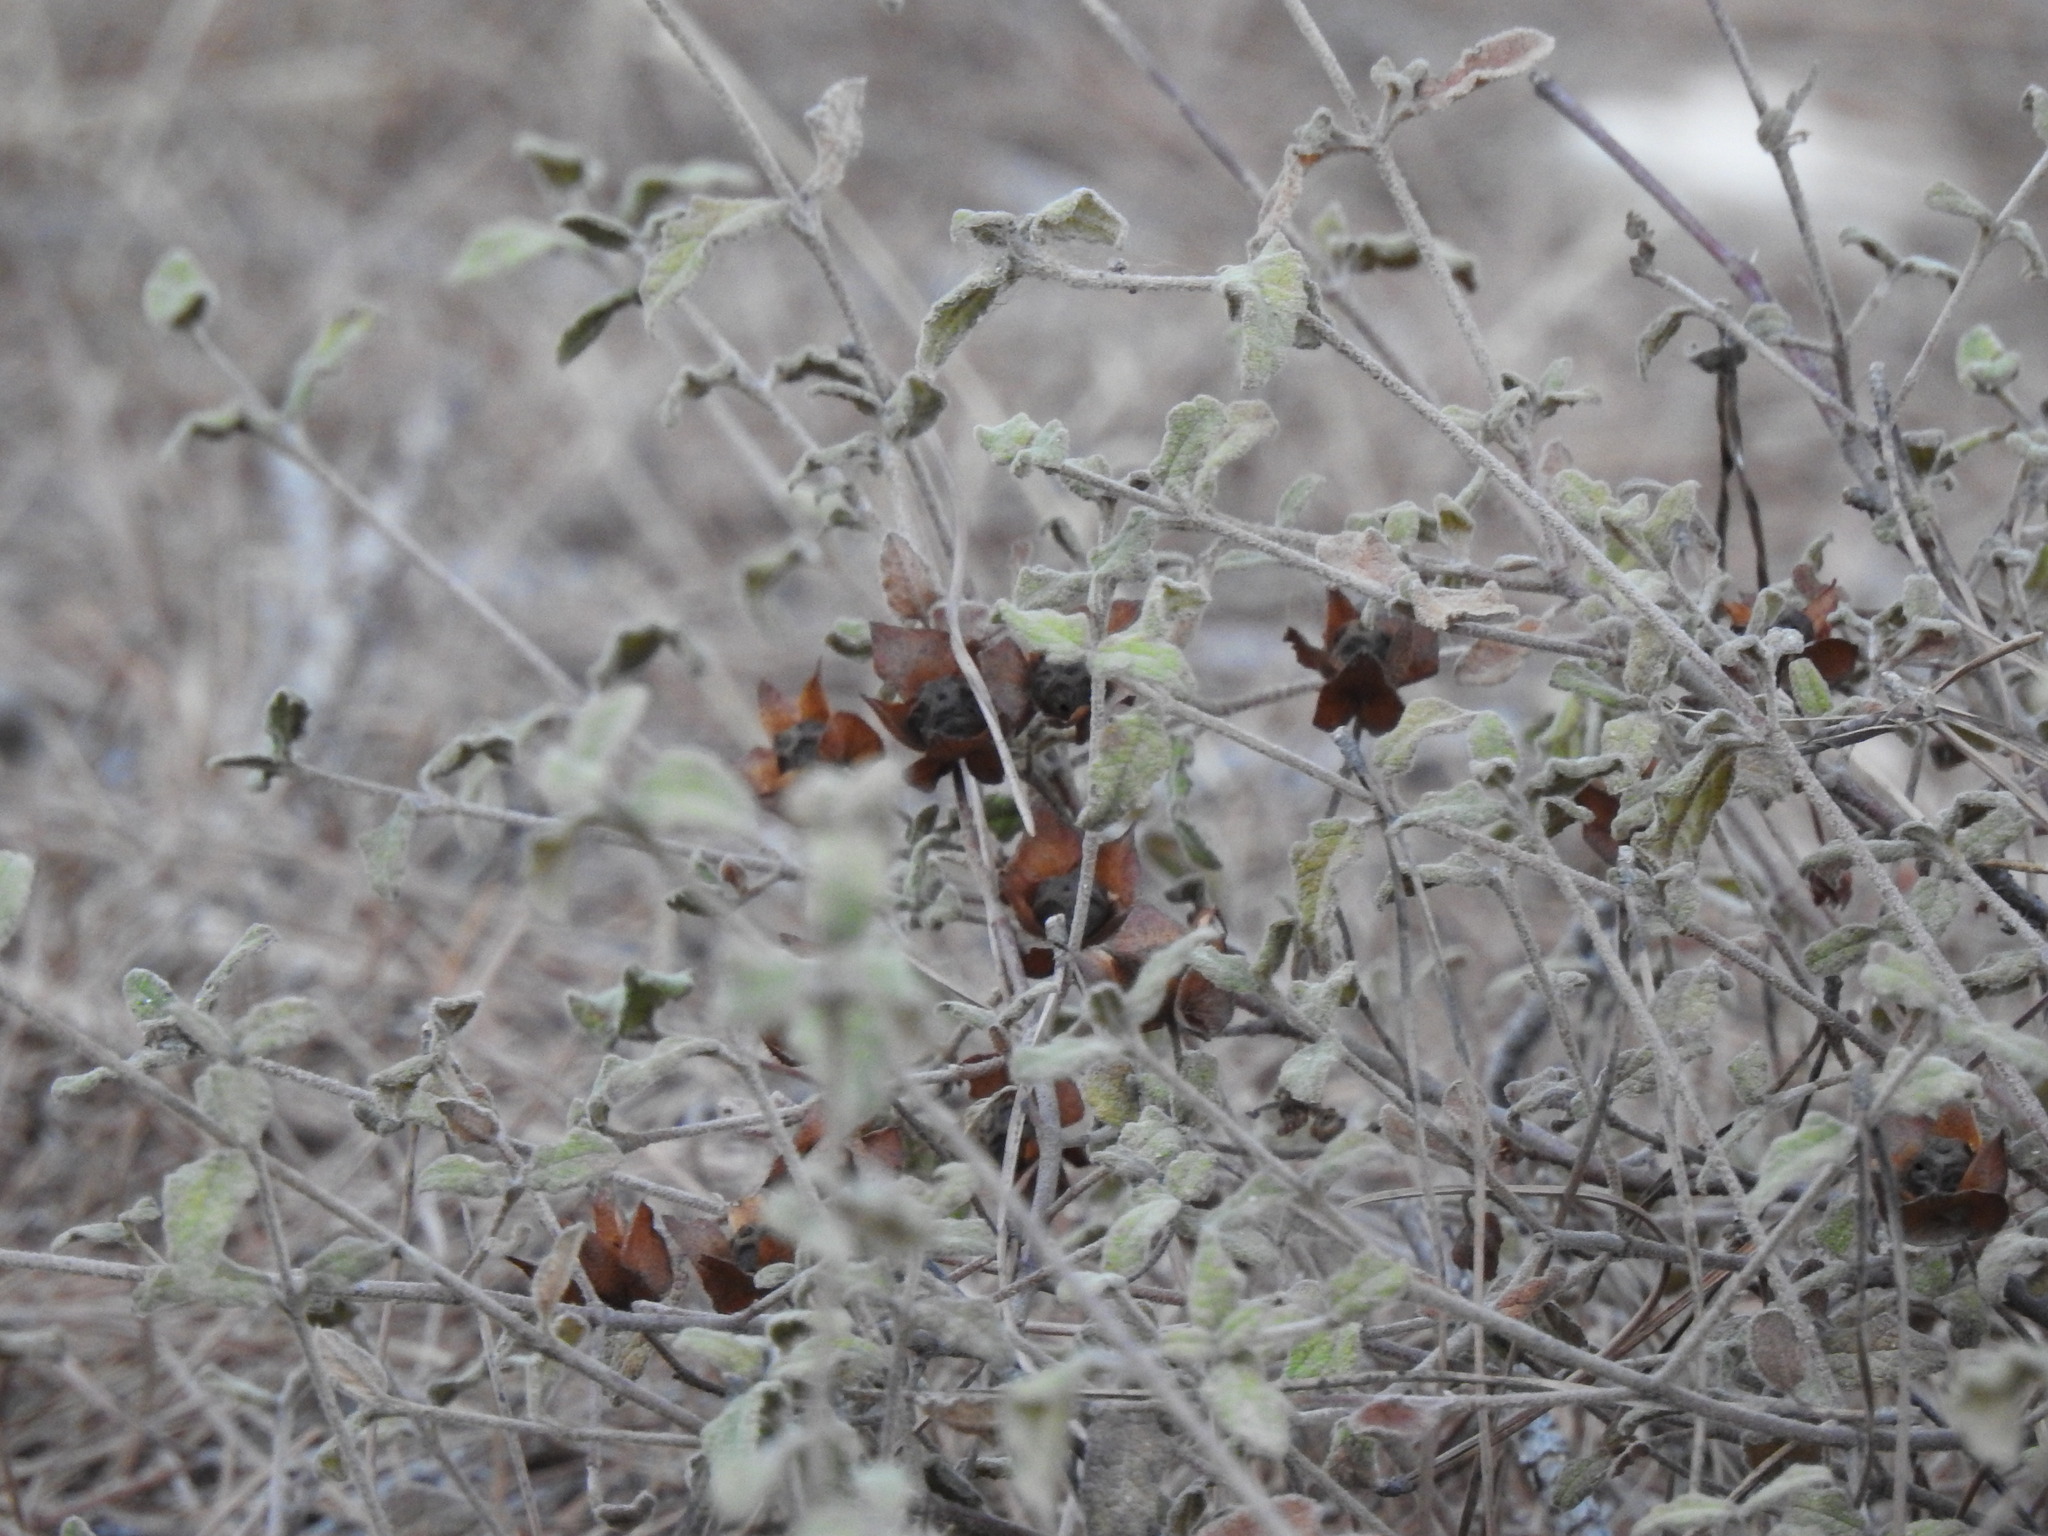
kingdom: Plantae
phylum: Tracheophyta
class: Magnoliopsida
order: Malvales
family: Cistaceae
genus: Cistus
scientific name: Cistus salviifolius
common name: Salvia cistus
